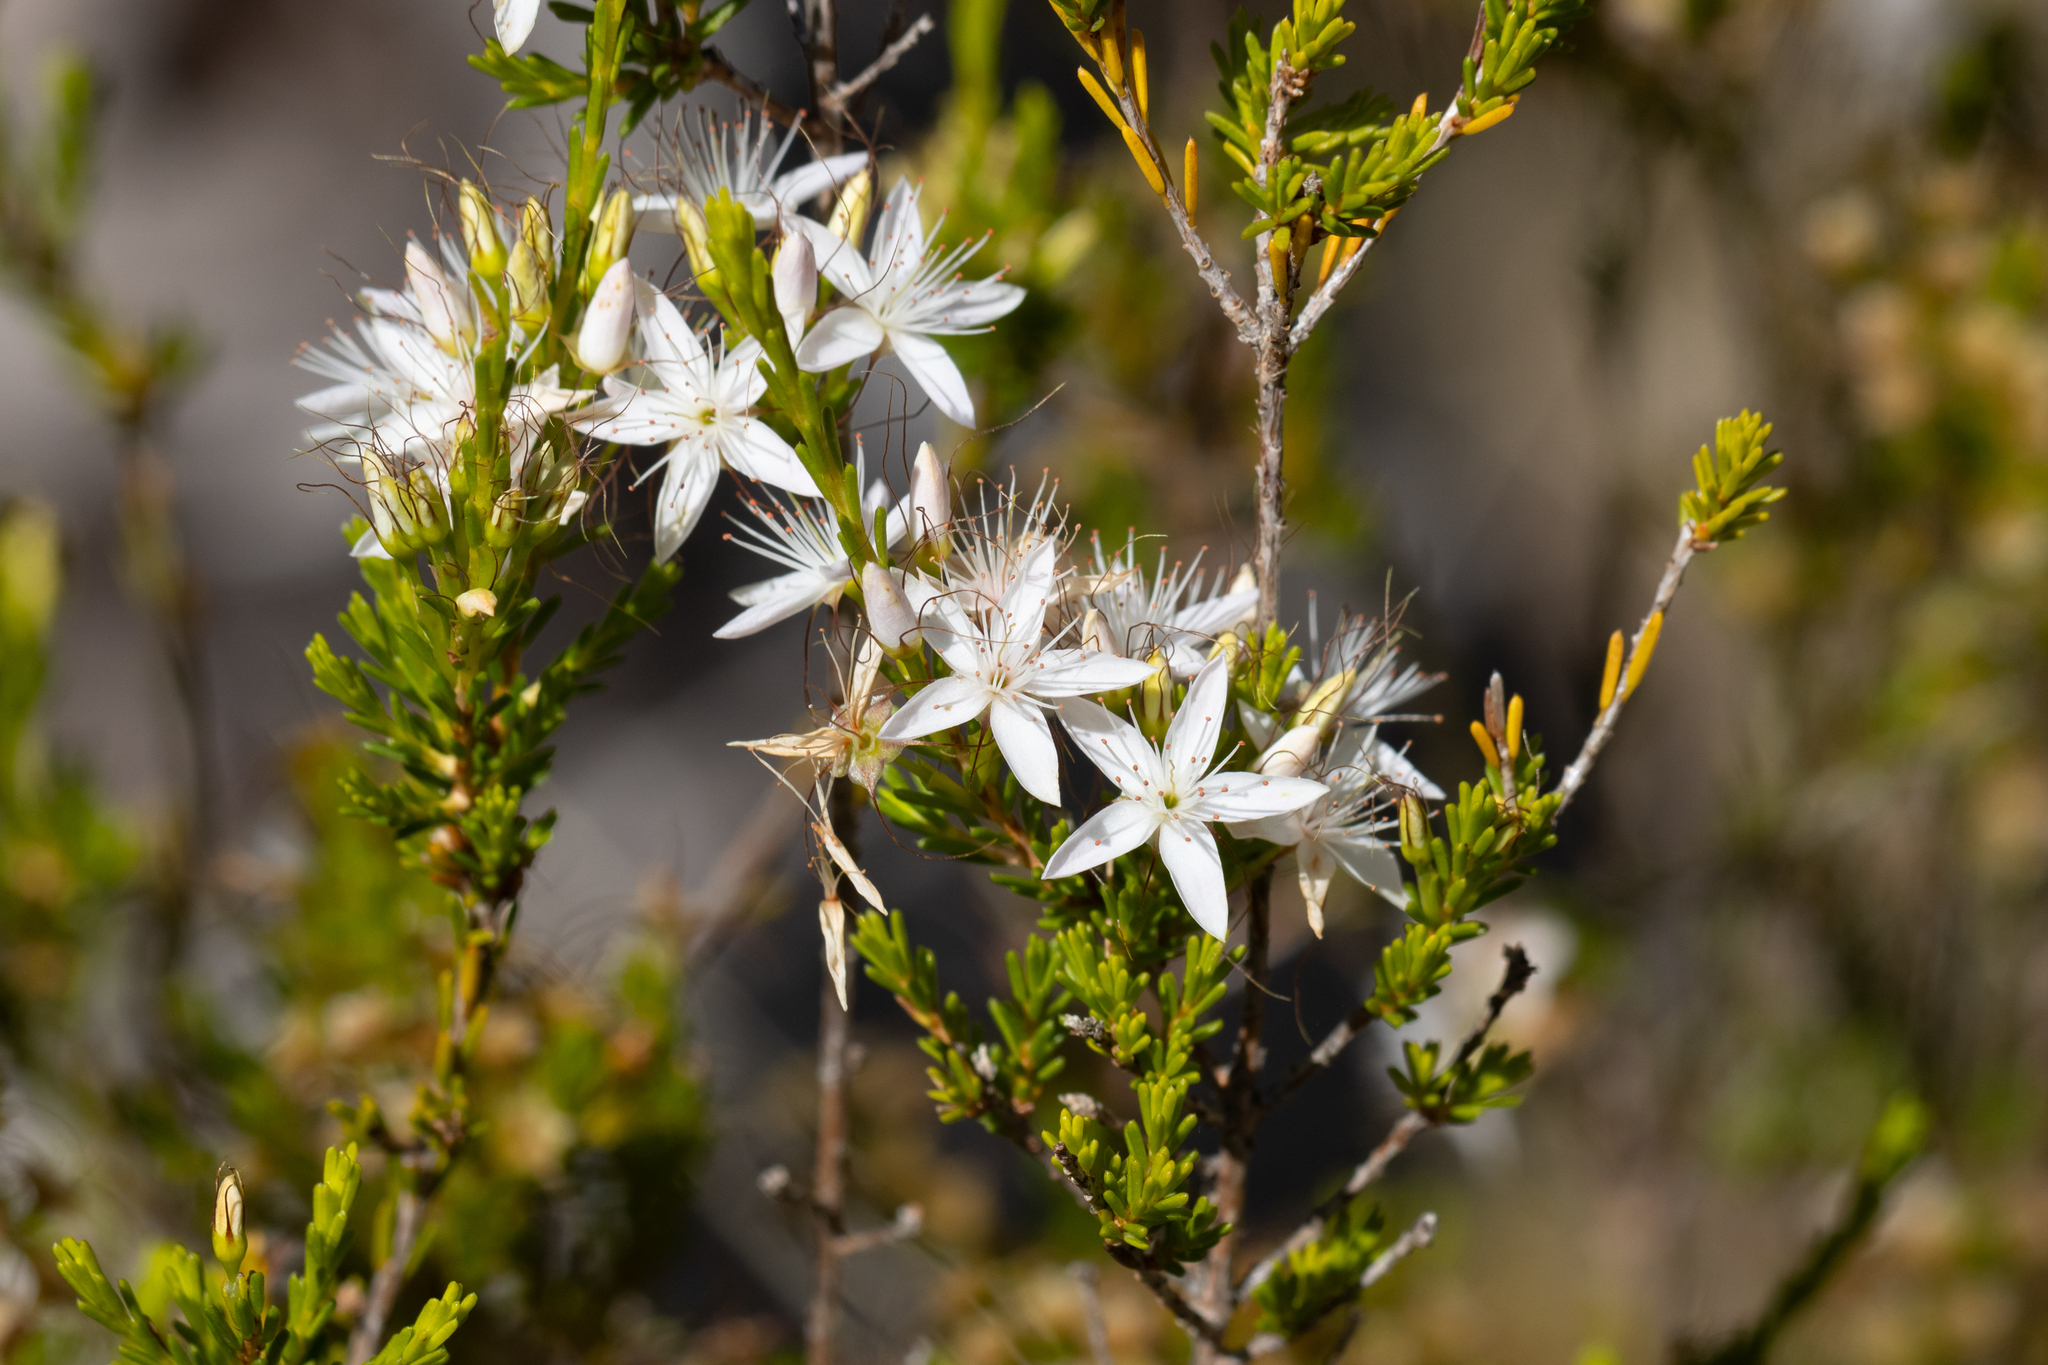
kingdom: Plantae
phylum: Tracheophyta
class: Magnoliopsida
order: Myrtales
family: Myrtaceae
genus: Calytrix
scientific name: Calytrix tetragona
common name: Common fringe myrtle
